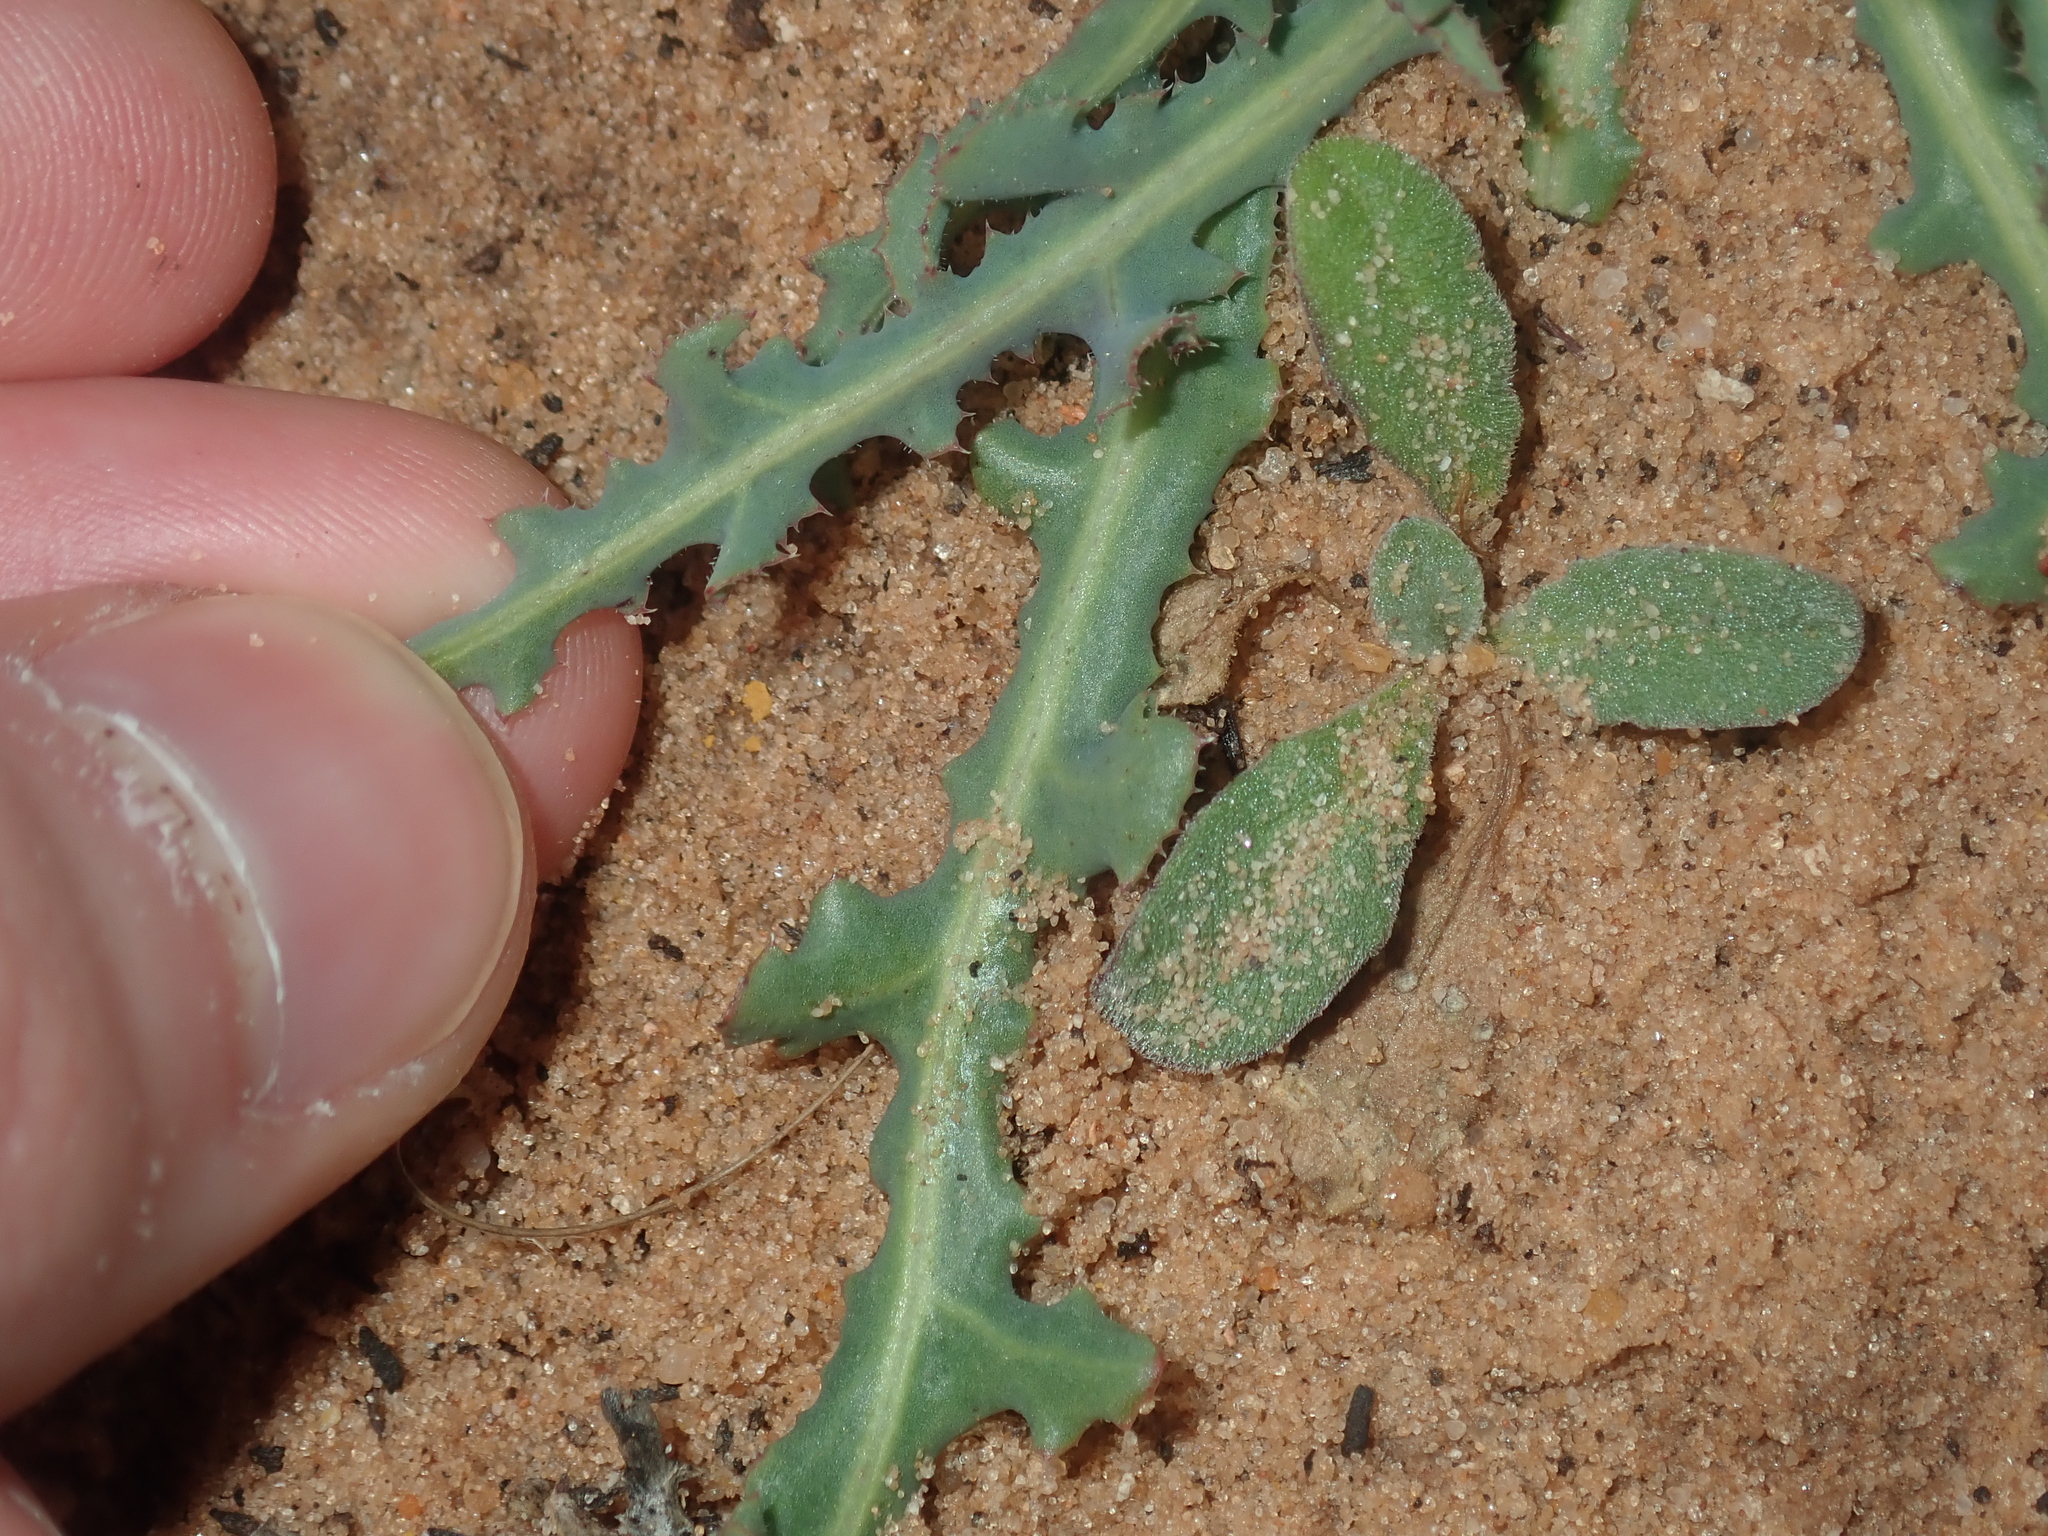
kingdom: Plantae
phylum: Tracheophyta
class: Magnoliopsida
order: Asterales
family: Asteraceae
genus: Reichardia
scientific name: Reichardia tingitana
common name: Reichardia
